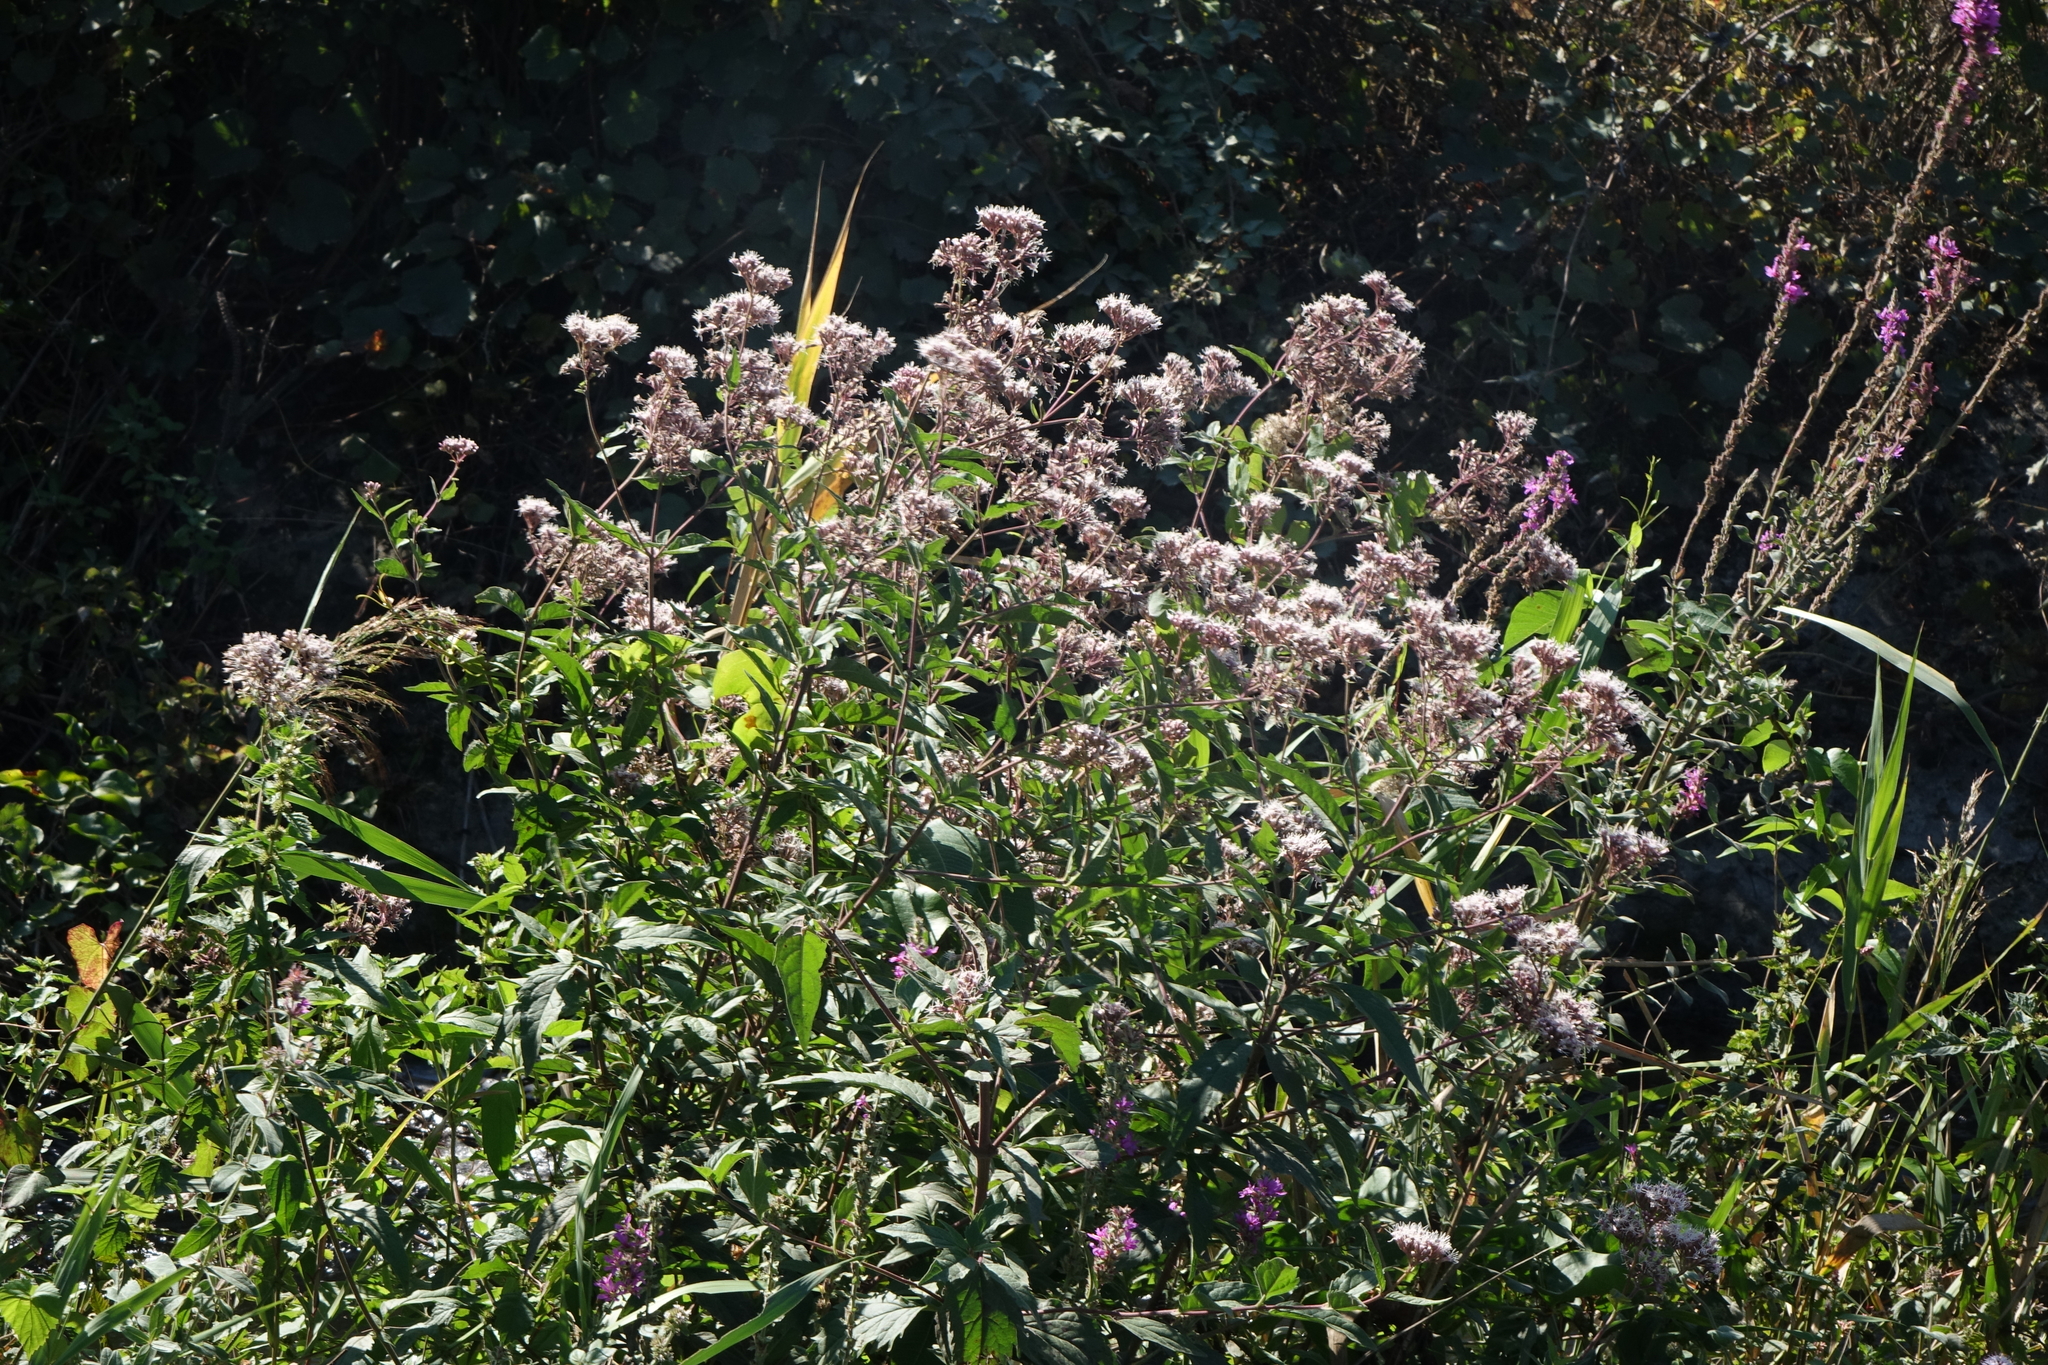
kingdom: Plantae
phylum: Tracheophyta
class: Magnoliopsida
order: Asterales
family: Asteraceae
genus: Eupatorium
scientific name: Eupatorium cannabinum
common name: Hemp-agrimony
